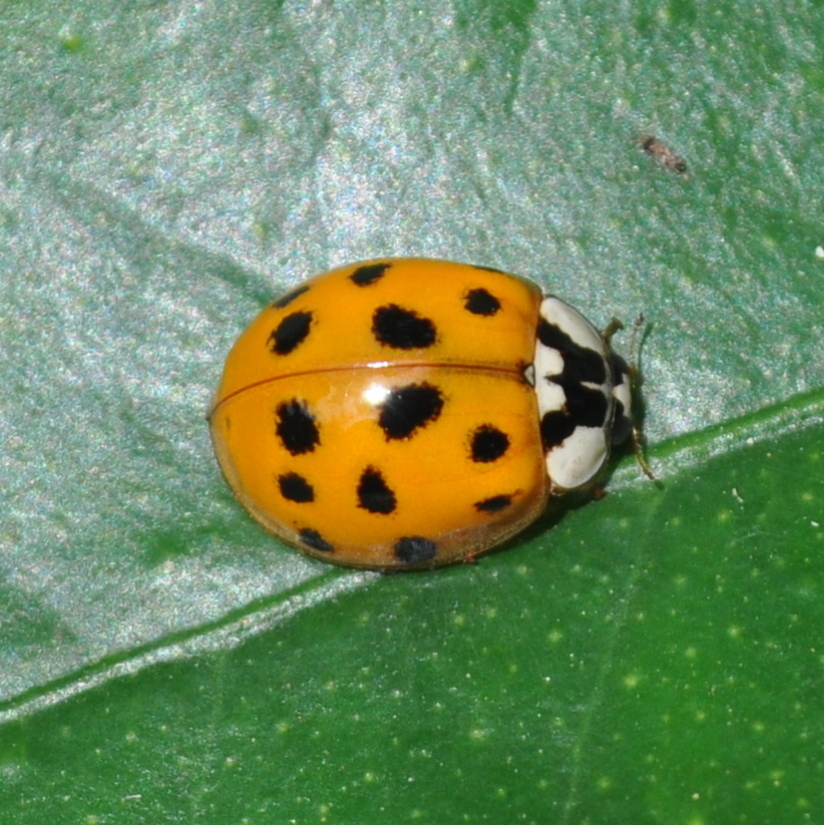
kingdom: Animalia
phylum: Arthropoda
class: Insecta
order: Coleoptera
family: Coccinellidae
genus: Harmonia
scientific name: Harmonia axyridis
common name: Harlequin ladybird
